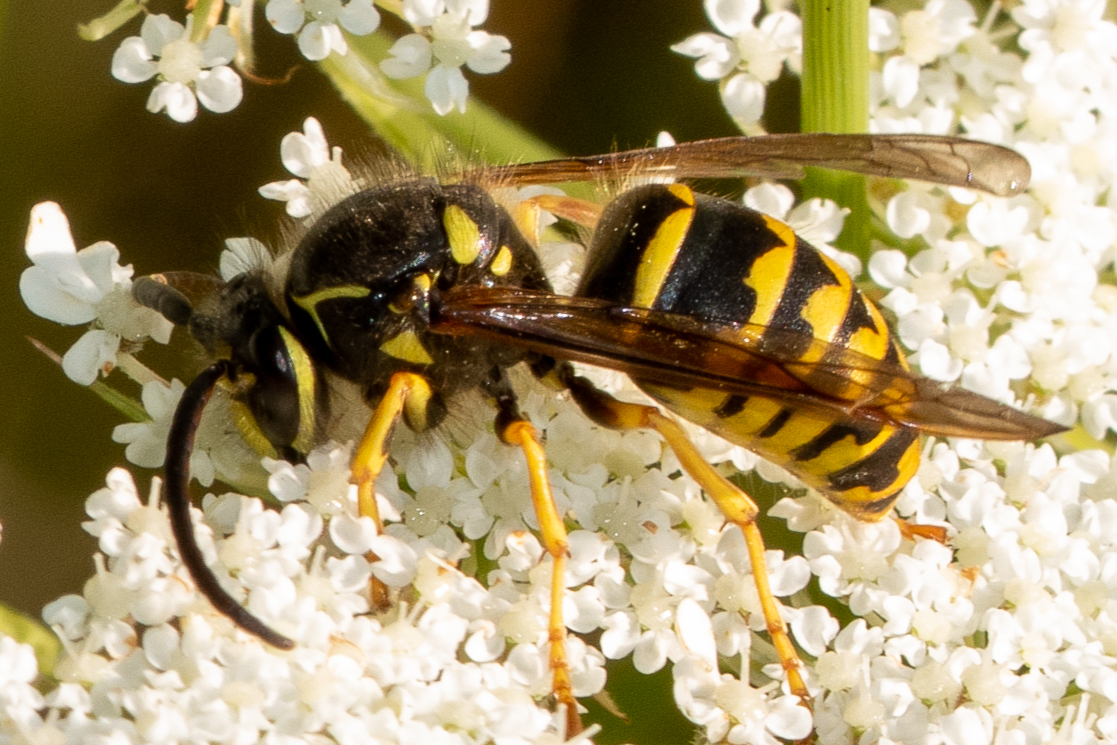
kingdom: Animalia
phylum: Arthropoda
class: Insecta
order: Hymenoptera
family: Vespidae
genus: Dolichovespula
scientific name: Dolichovespula arenaria
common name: Aerial yellowjacket
